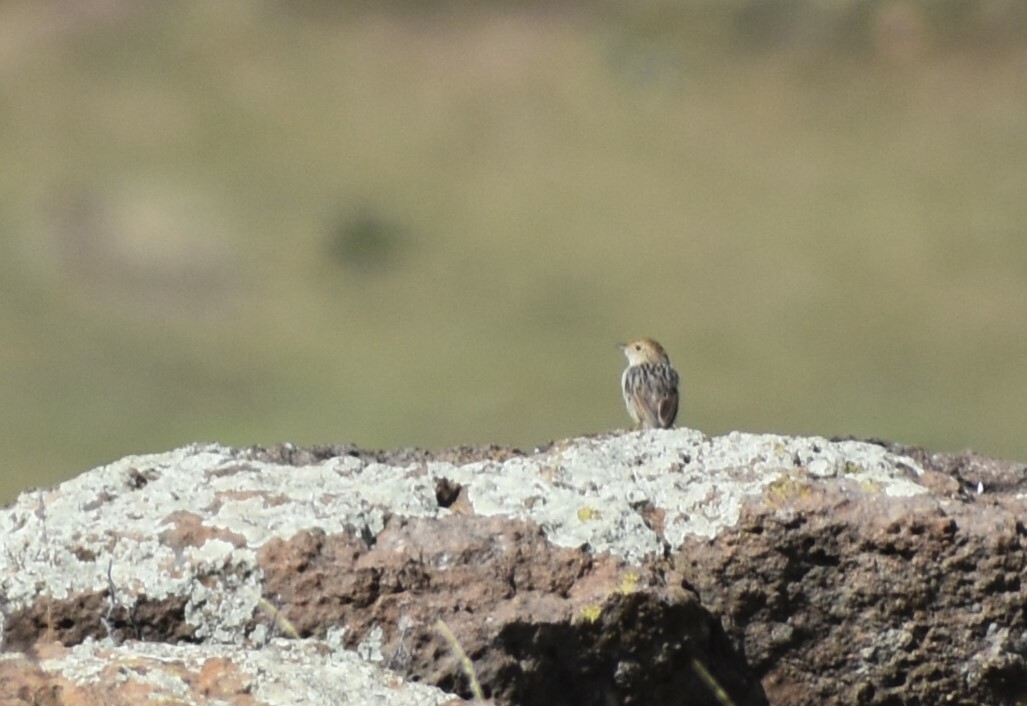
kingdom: Animalia
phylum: Chordata
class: Aves
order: Passeriformes
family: Cisticolidae
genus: Cisticola
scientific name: Cisticola lais
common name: Wailing cisticola
